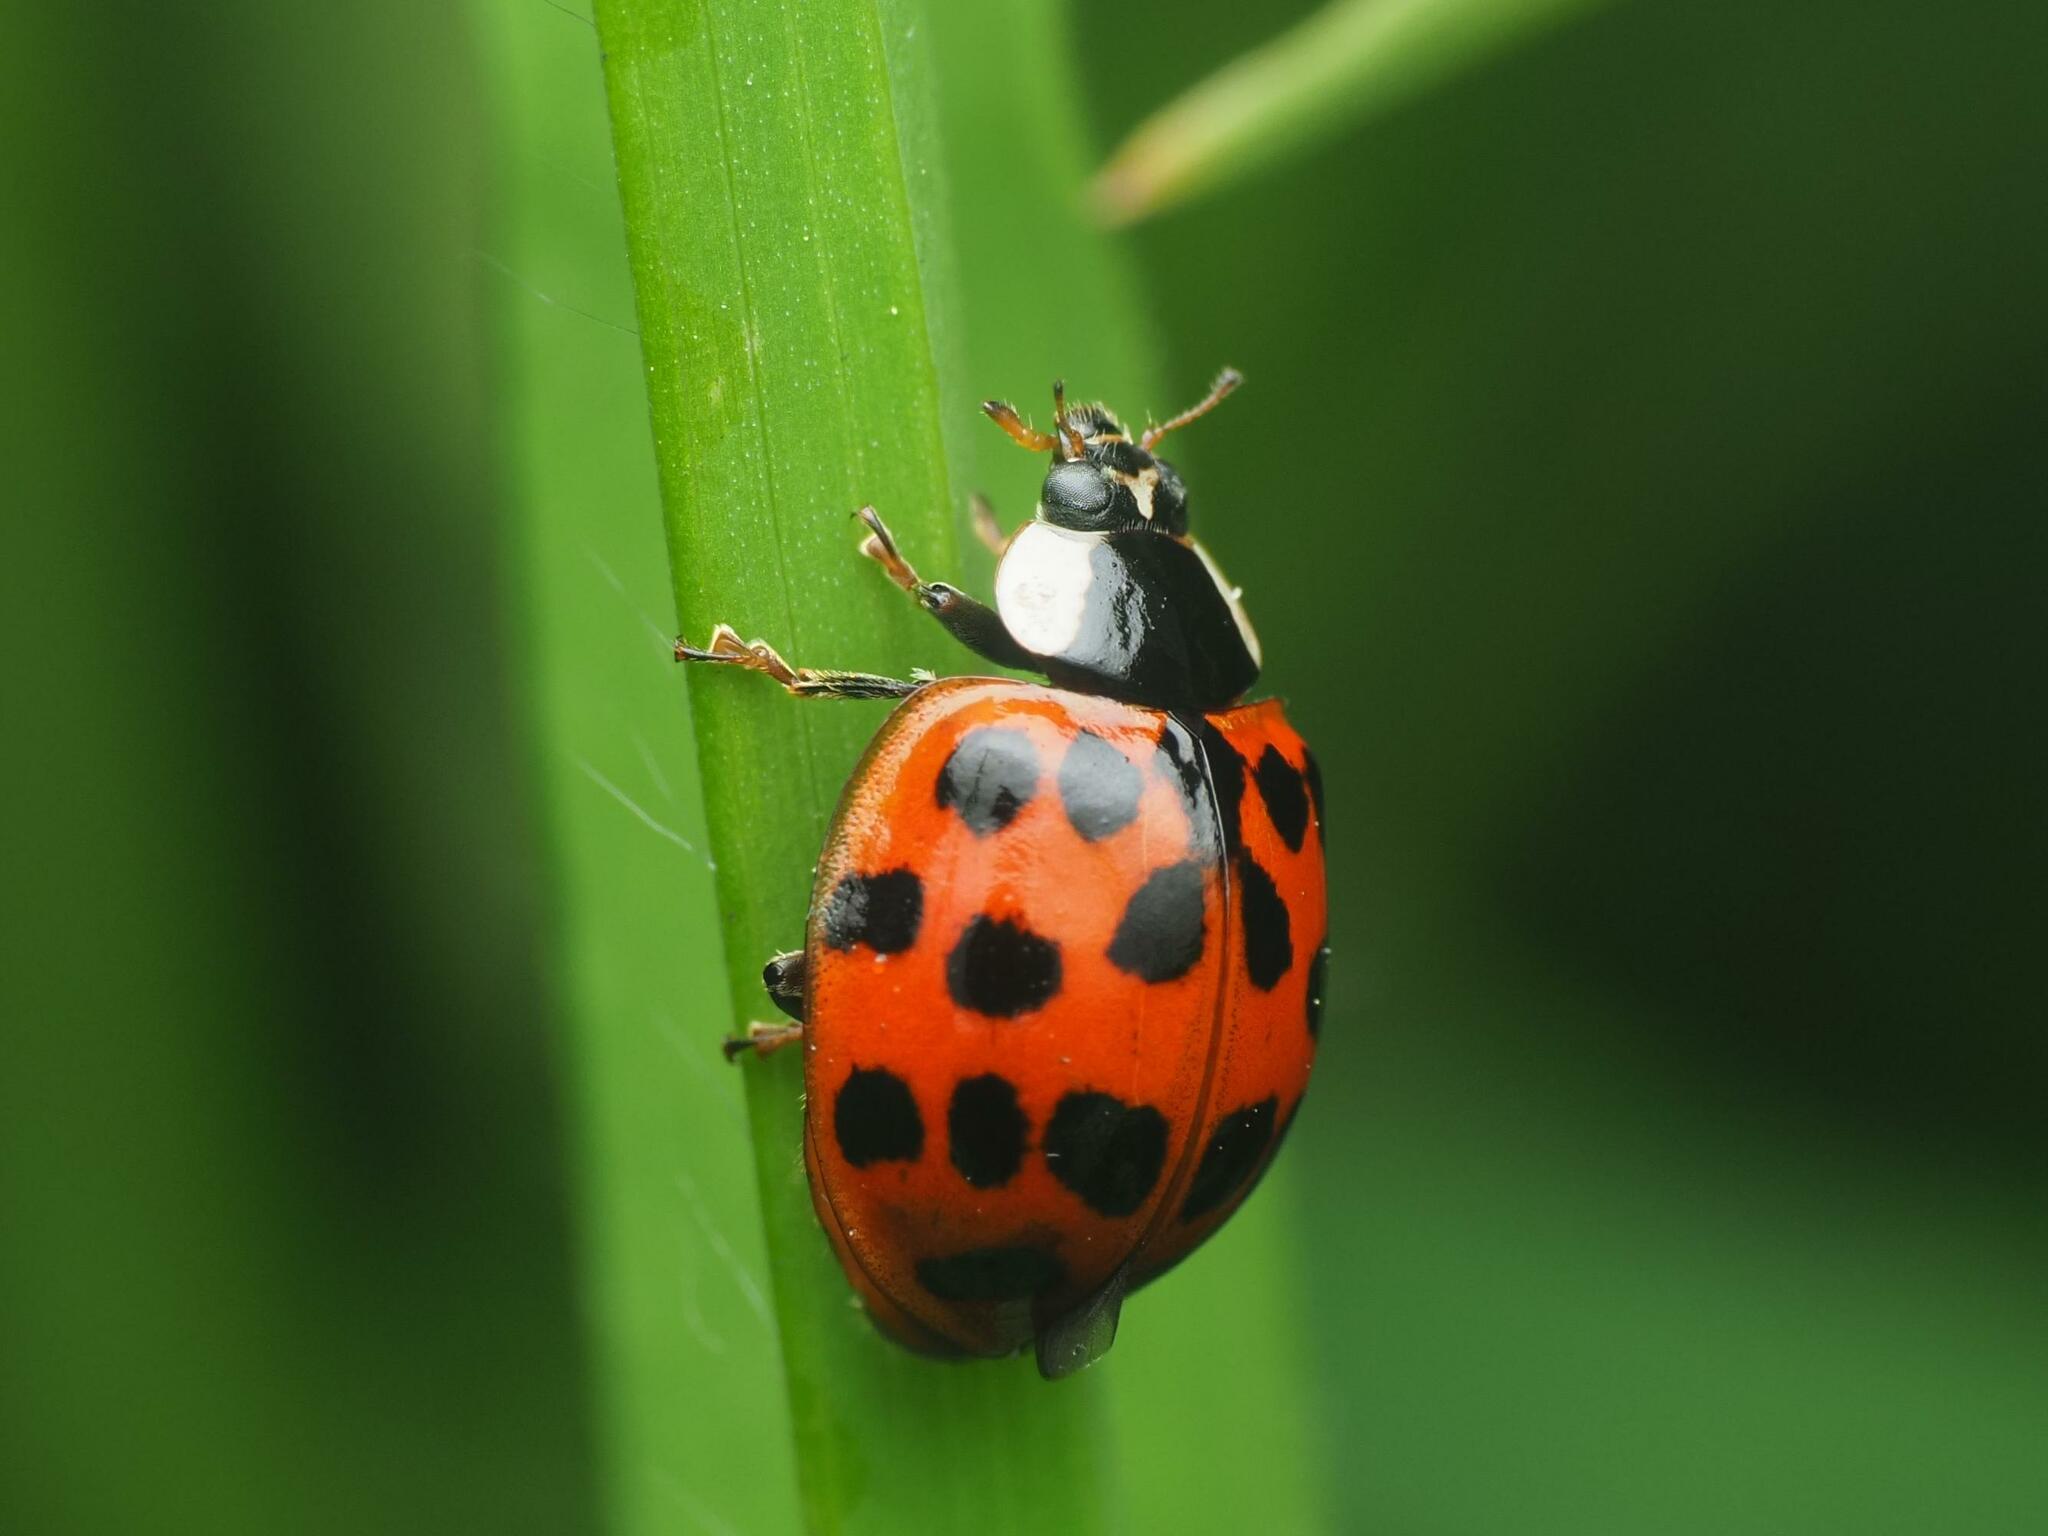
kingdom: Animalia
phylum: Arthropoda
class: Insecta
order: Coleoptera
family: Coccinellidae
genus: Harmonia
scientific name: Harmonia axyridis
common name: Harlequin ladybird
